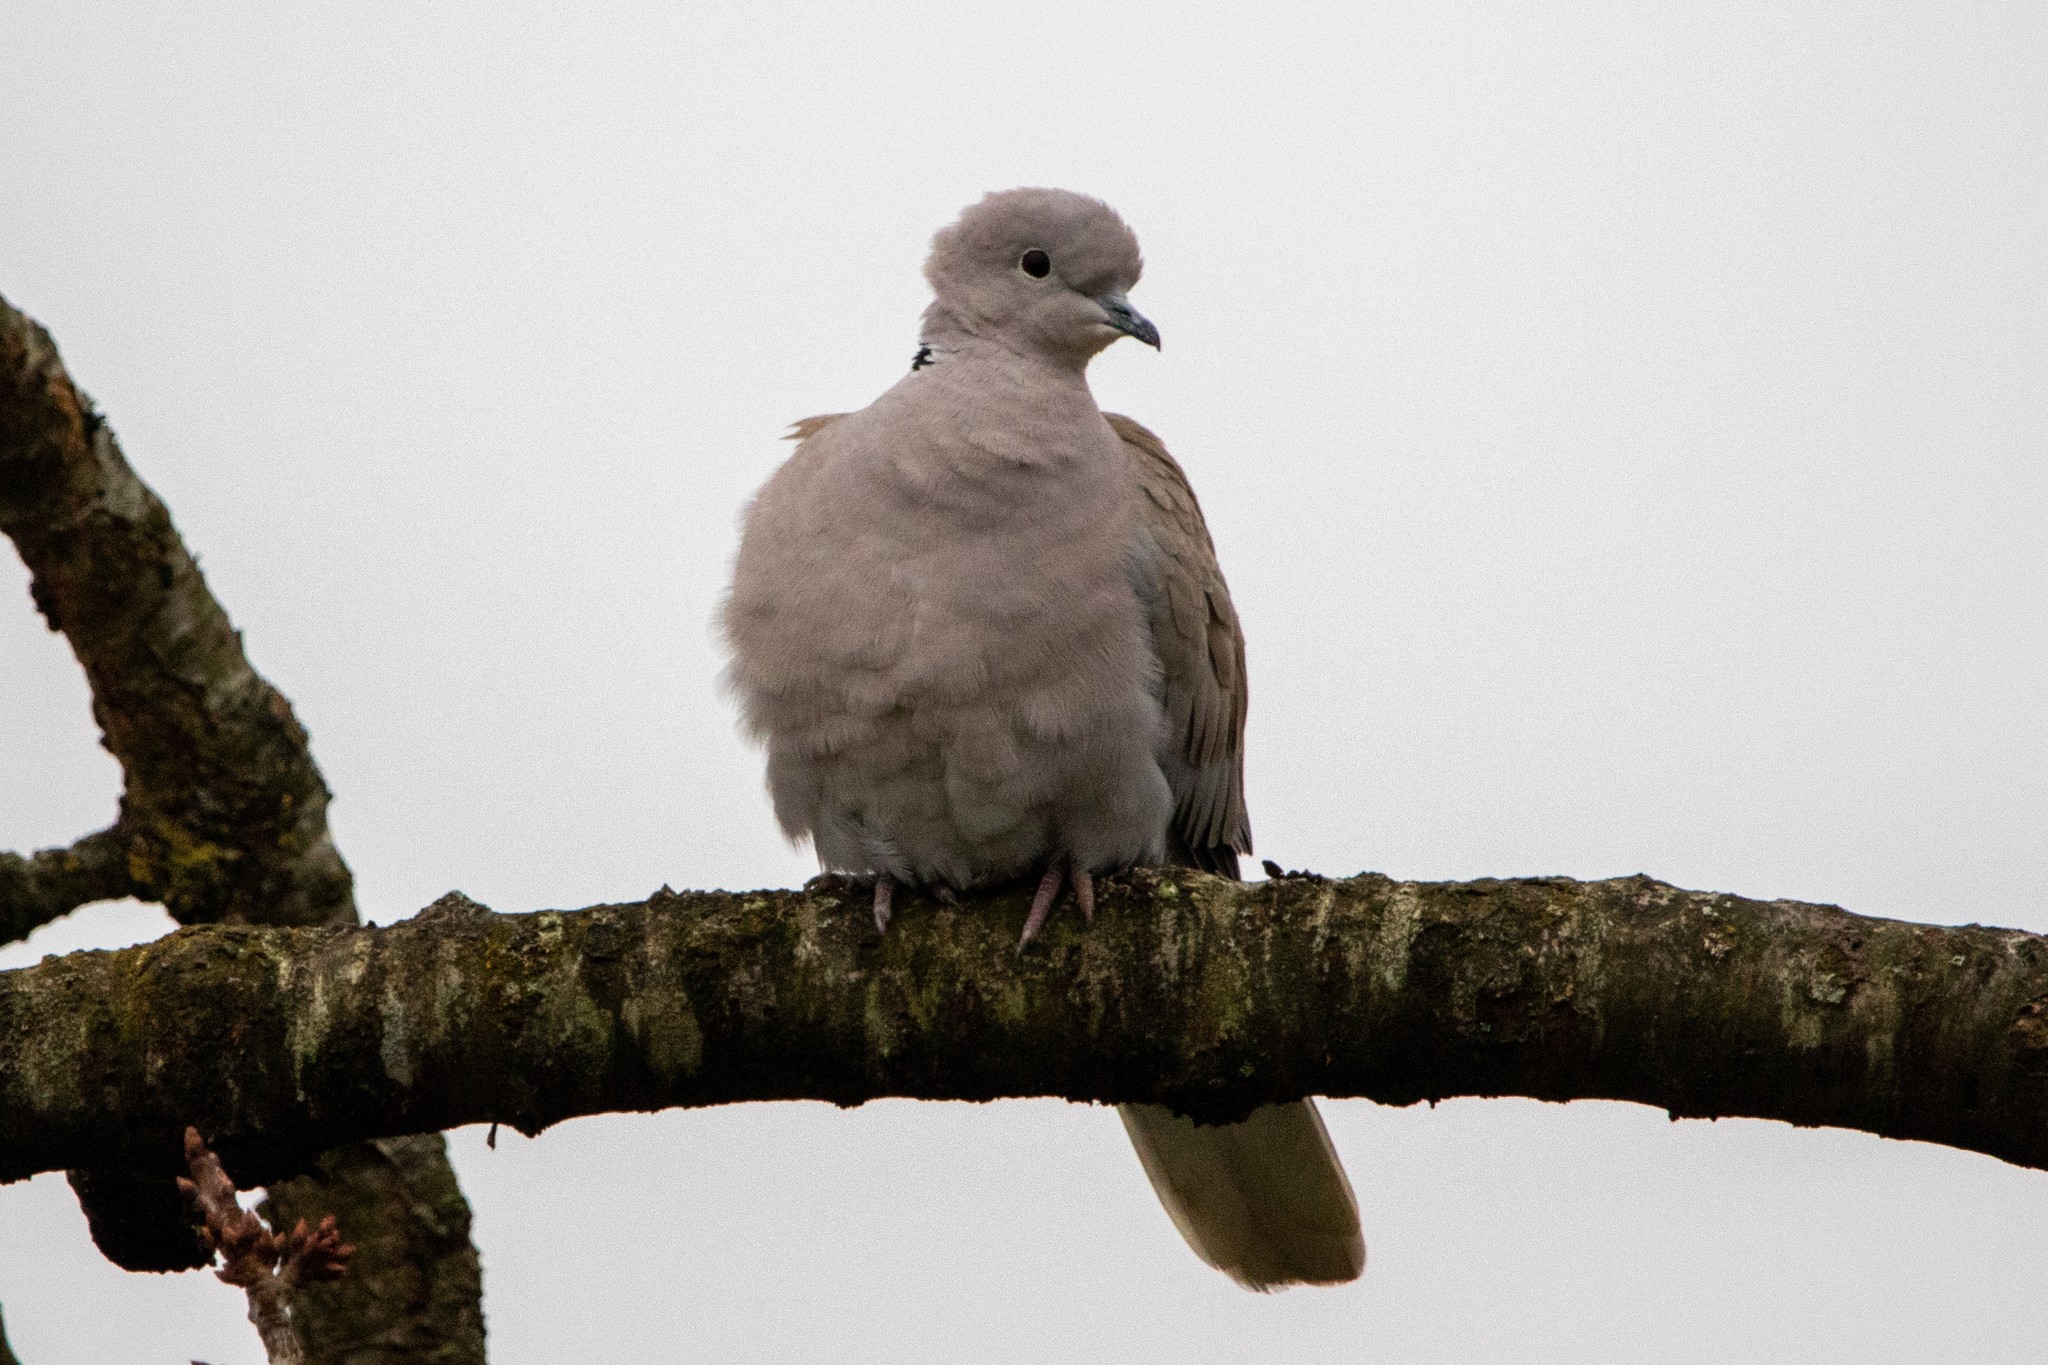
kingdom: Animalia
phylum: Chordata
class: Aves
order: Columbiformes
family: Columbidae
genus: Streptopelia
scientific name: Streptopelia decaocto
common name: Eurasian collared dove
